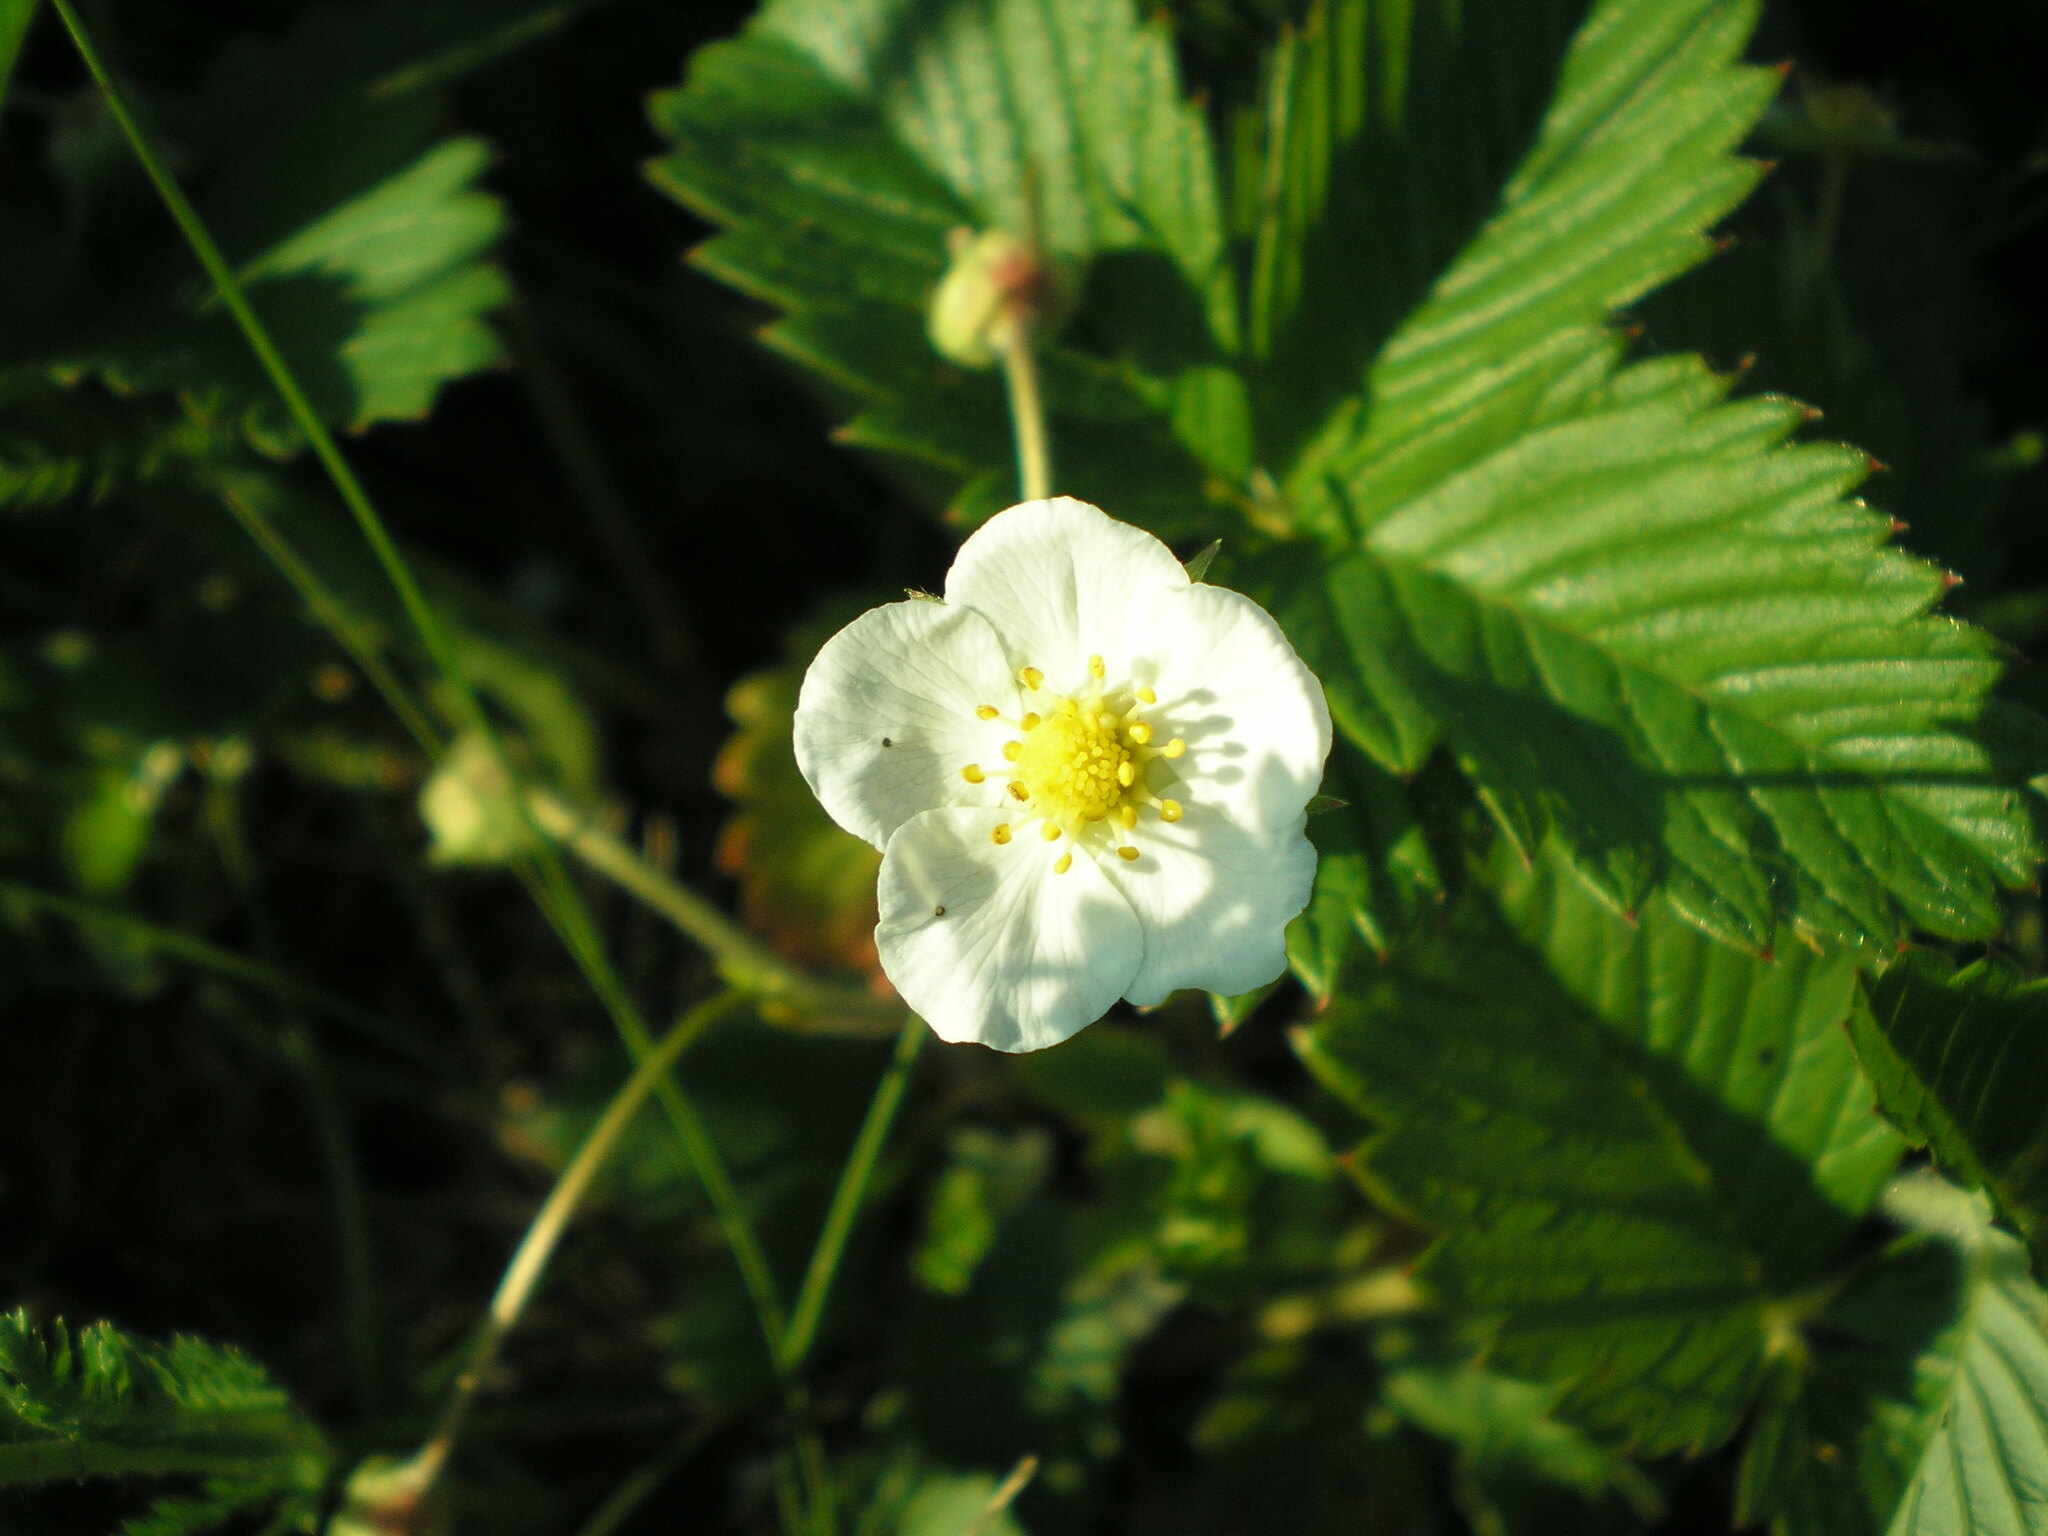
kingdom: Plantae
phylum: Tracheophyta
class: Magnoliopsida
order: Rosales
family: Rosaceae
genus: Fragaria
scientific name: Fragaria viridis
